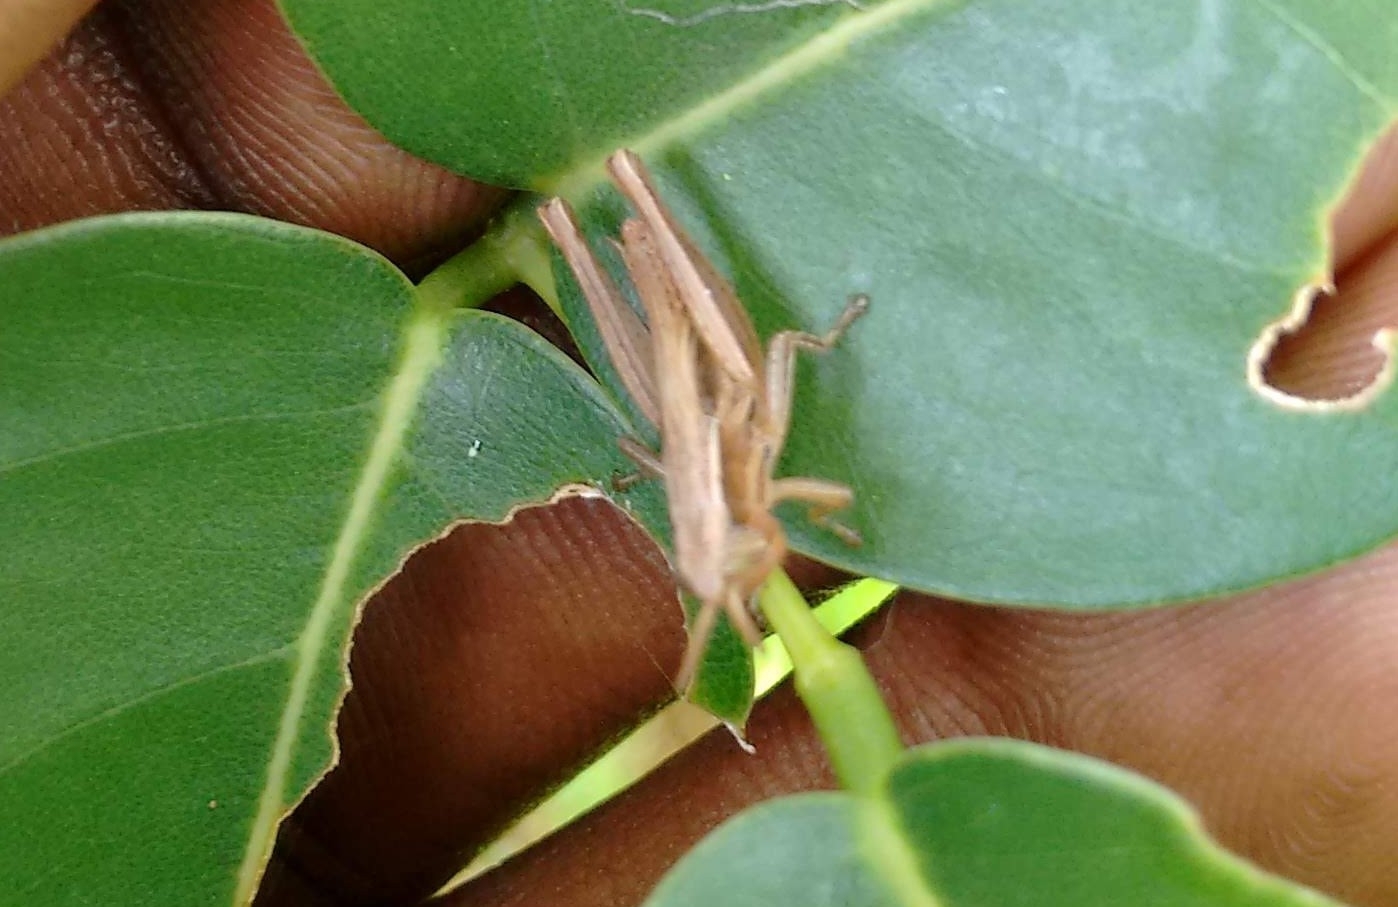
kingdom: Animalia
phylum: Arthropoda
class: Insecta
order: Orthoptera
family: Acrididae
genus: Spathosternum
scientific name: Spathosternum prasiniferum
